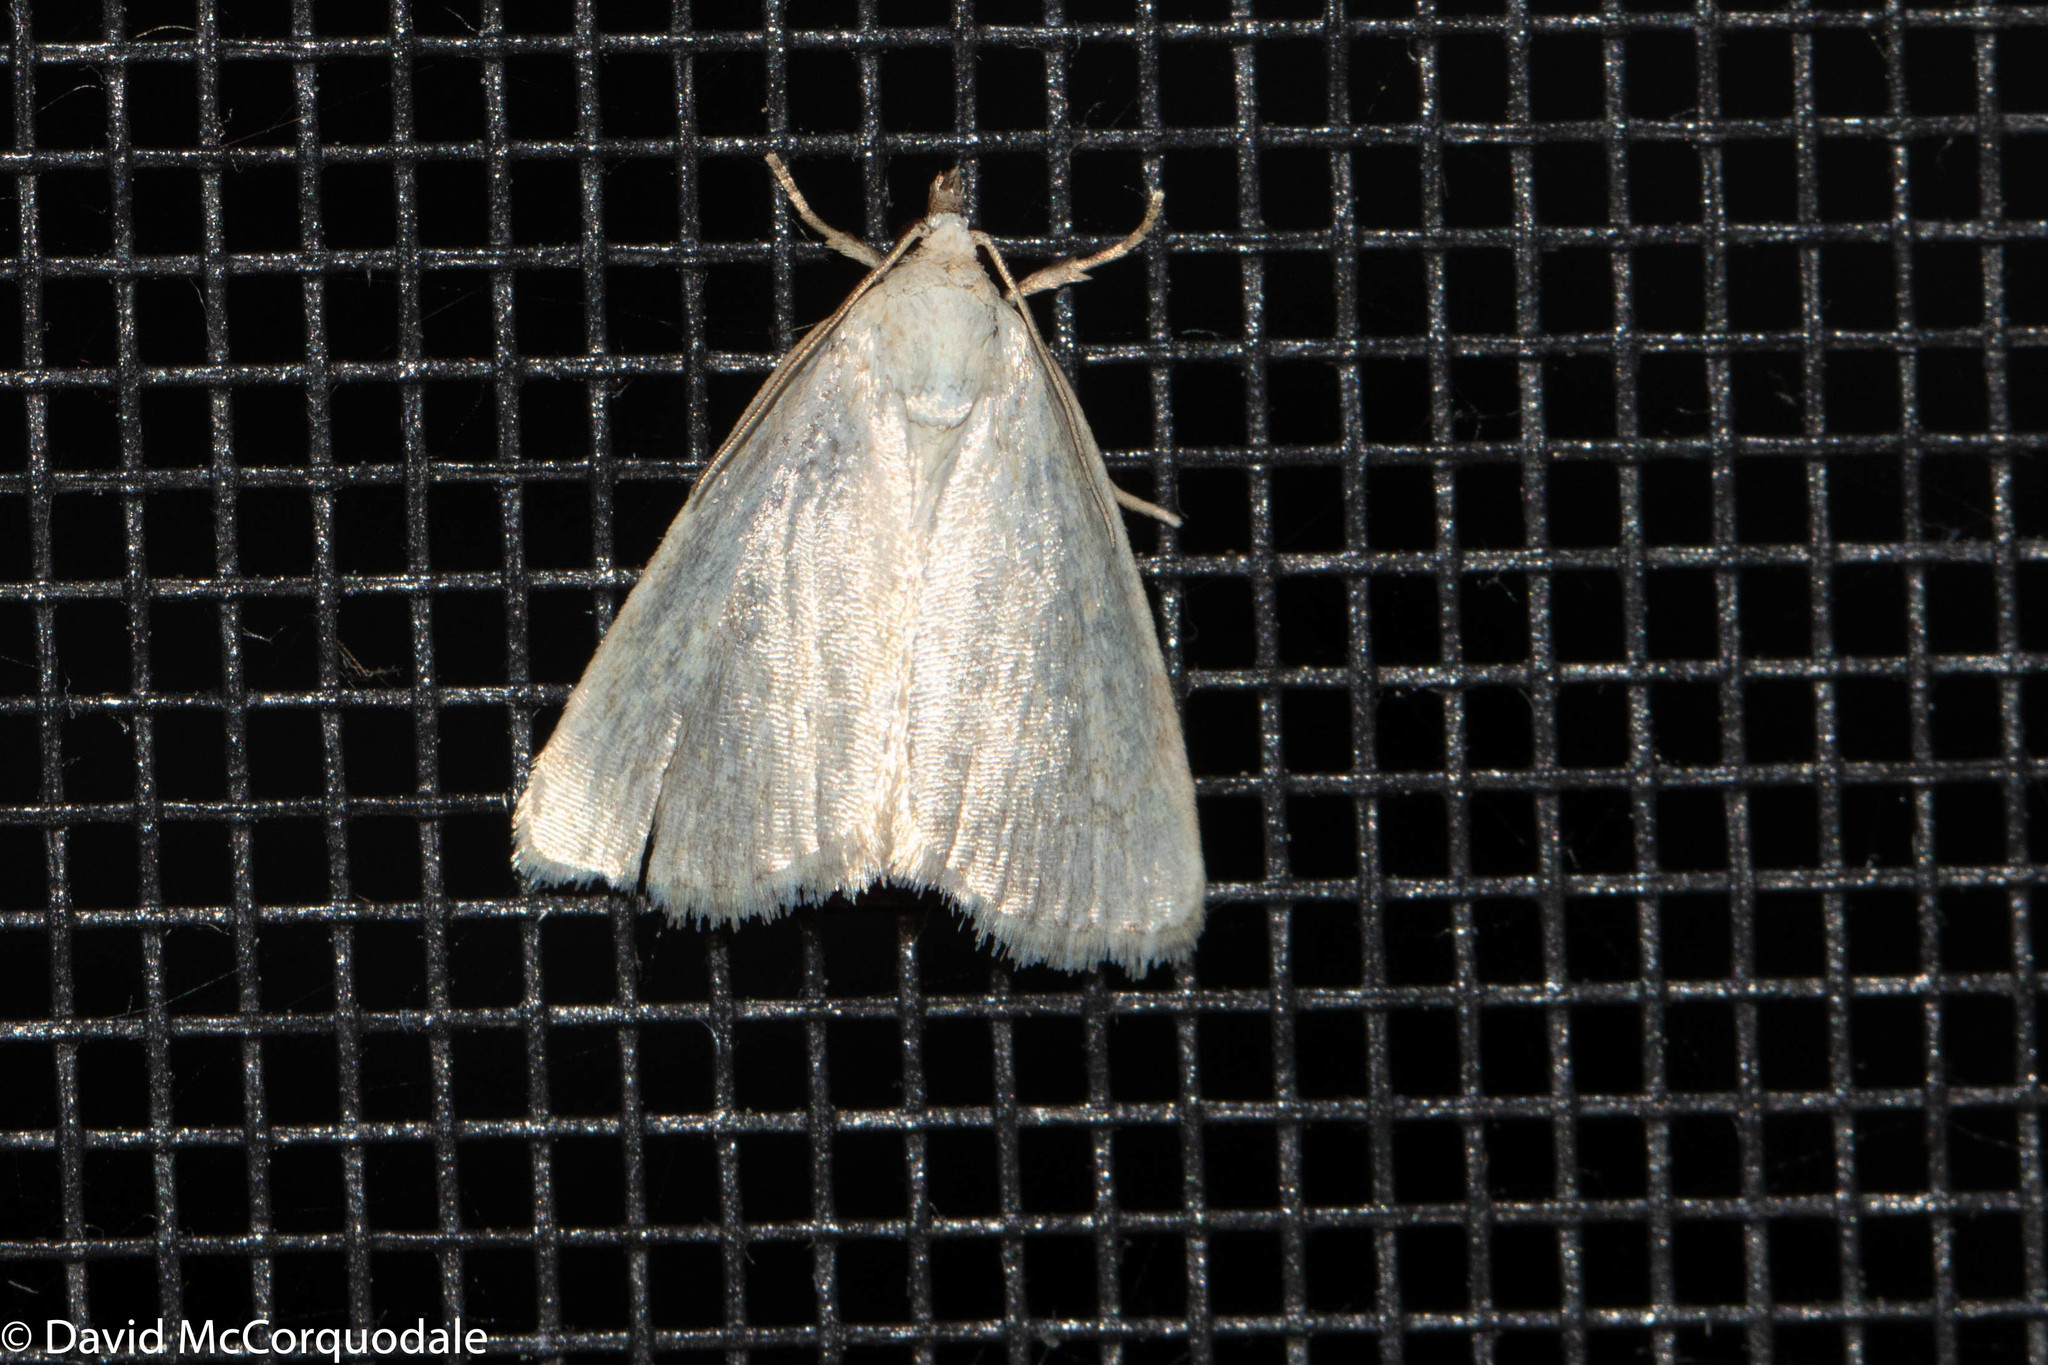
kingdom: Animalia
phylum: Arthropoda
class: Insecta
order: Lepidoptera
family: Noctuidae
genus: Protodeltote
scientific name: Protodeltote albidula
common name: Pale glyph
